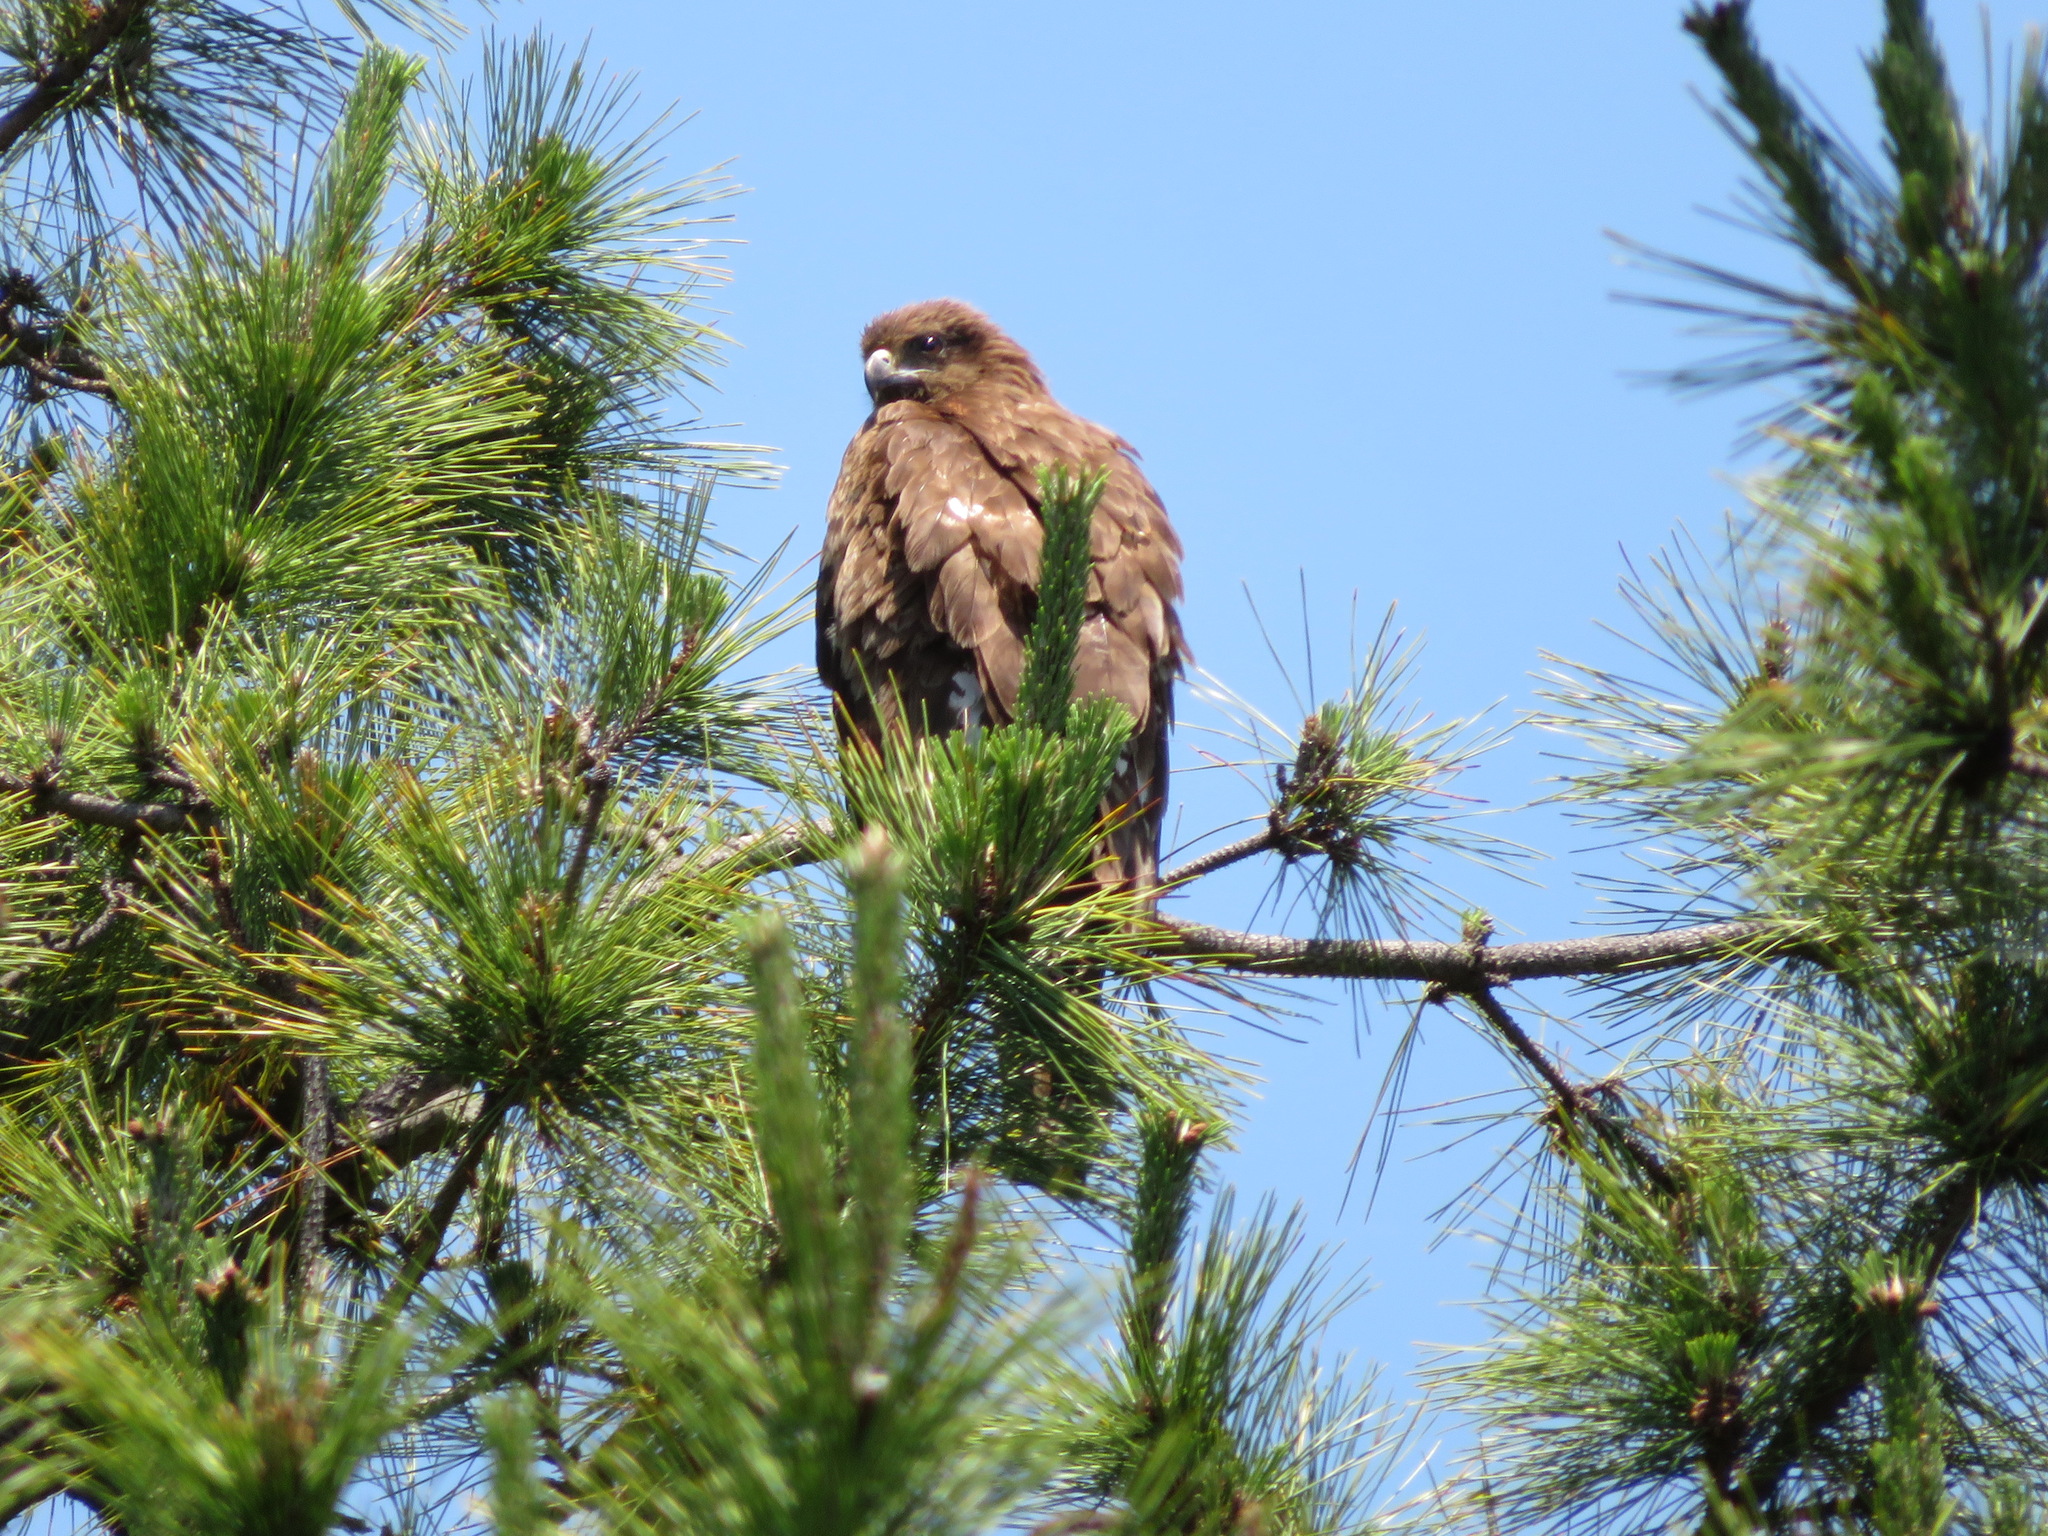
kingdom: Animalia
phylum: Chordata
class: Aves
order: Accipitriformes
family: Accipitridae
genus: Milvus
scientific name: Milvus migrans
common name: Black kite
